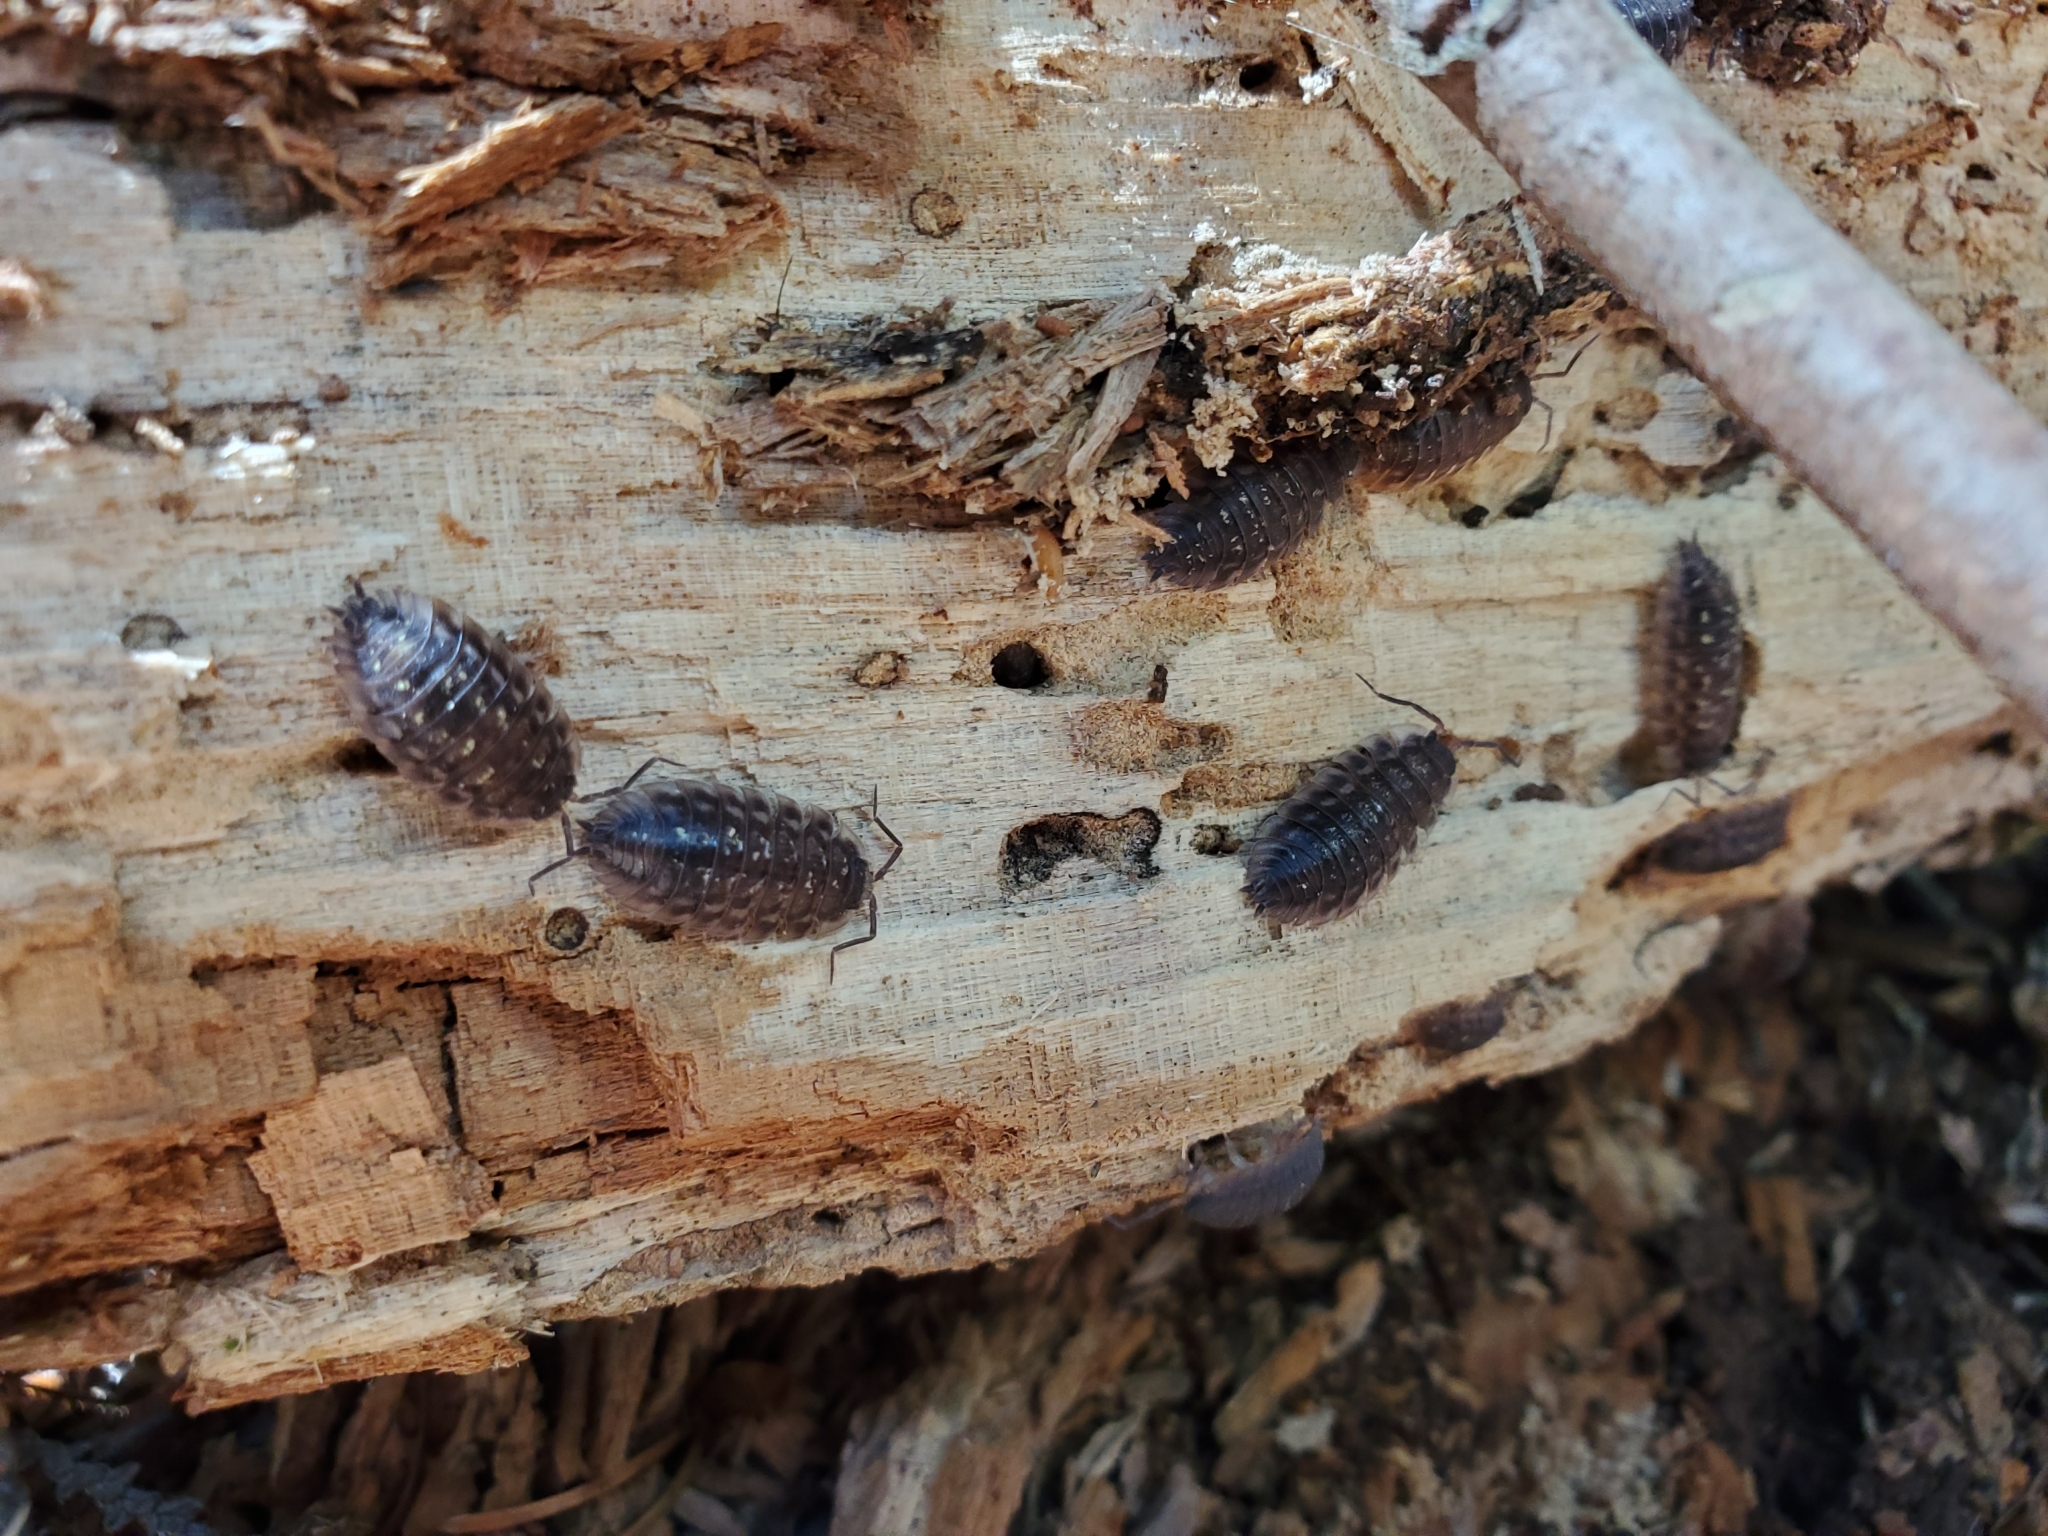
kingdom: Animalia
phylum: Arthropoda
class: Malacostraca
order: Isopoda
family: Oniscidae
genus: Oniscus
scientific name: Oniscus asellus
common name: Common shiny woodlouse
